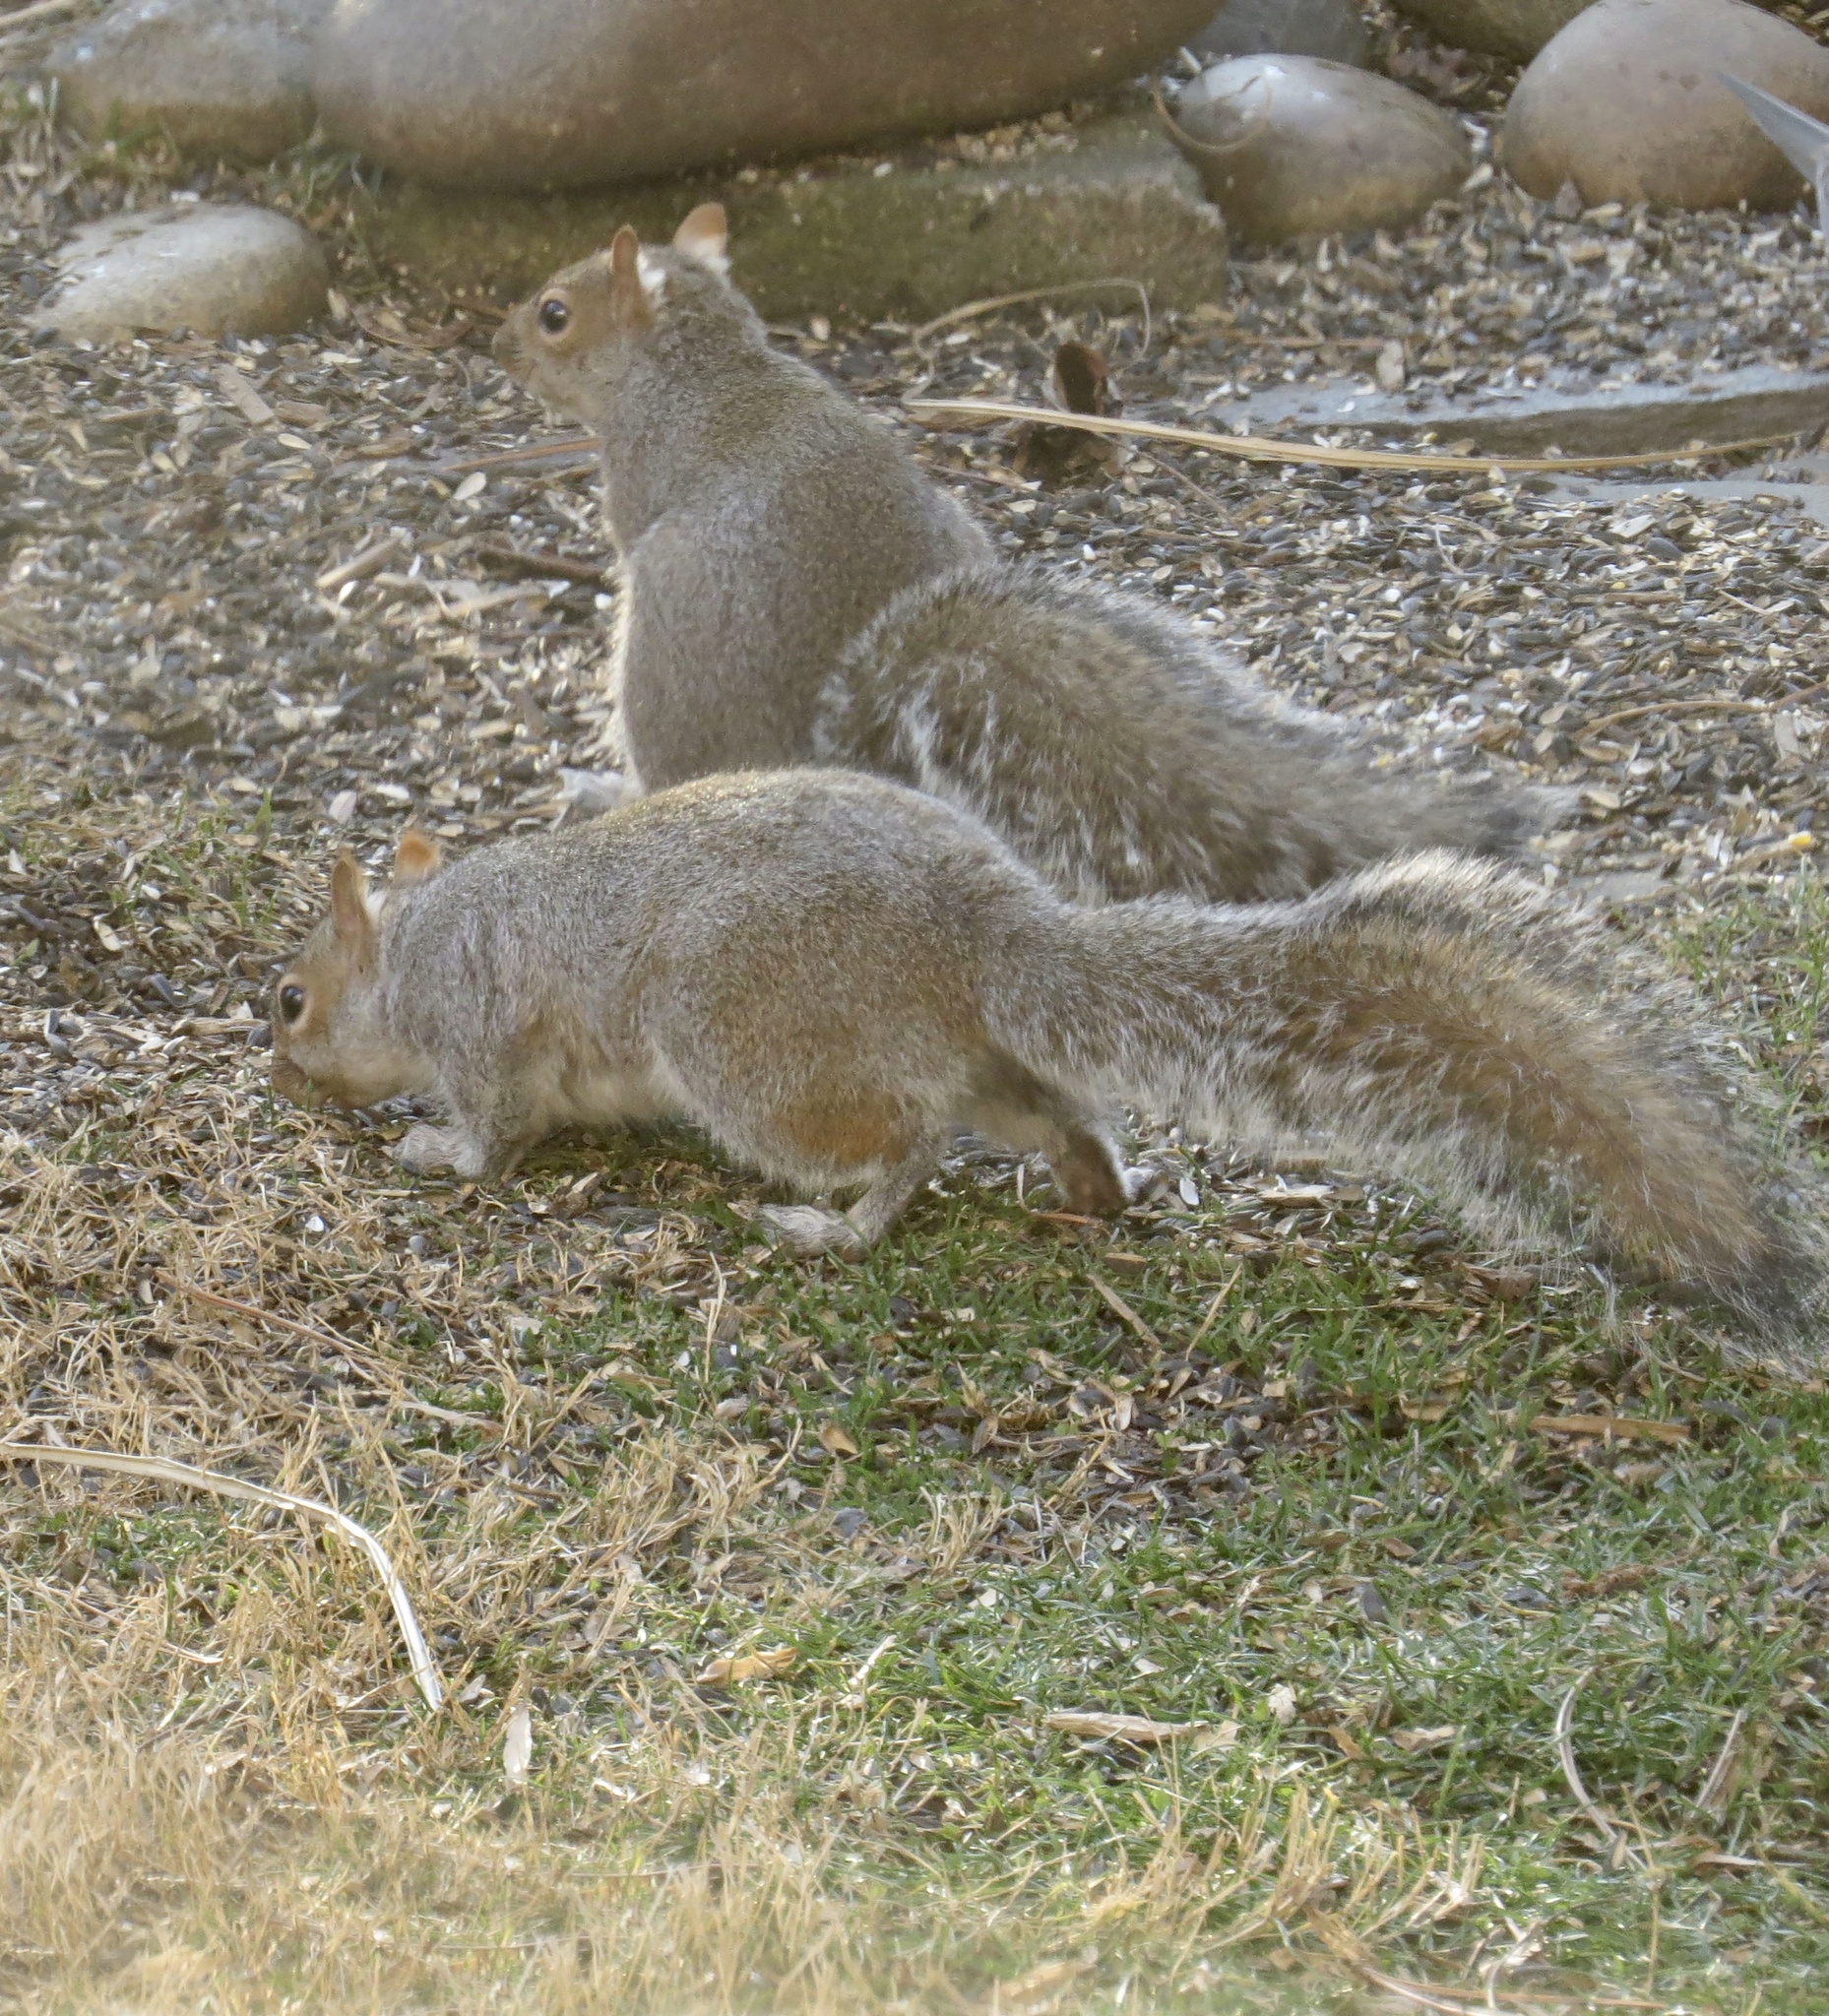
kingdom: Animalia
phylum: Chordata
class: Mammalia
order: Rodentia
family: Sciuridae
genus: Sciurus
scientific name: Sciurus carolinensis
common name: Eastern gray squirrel
